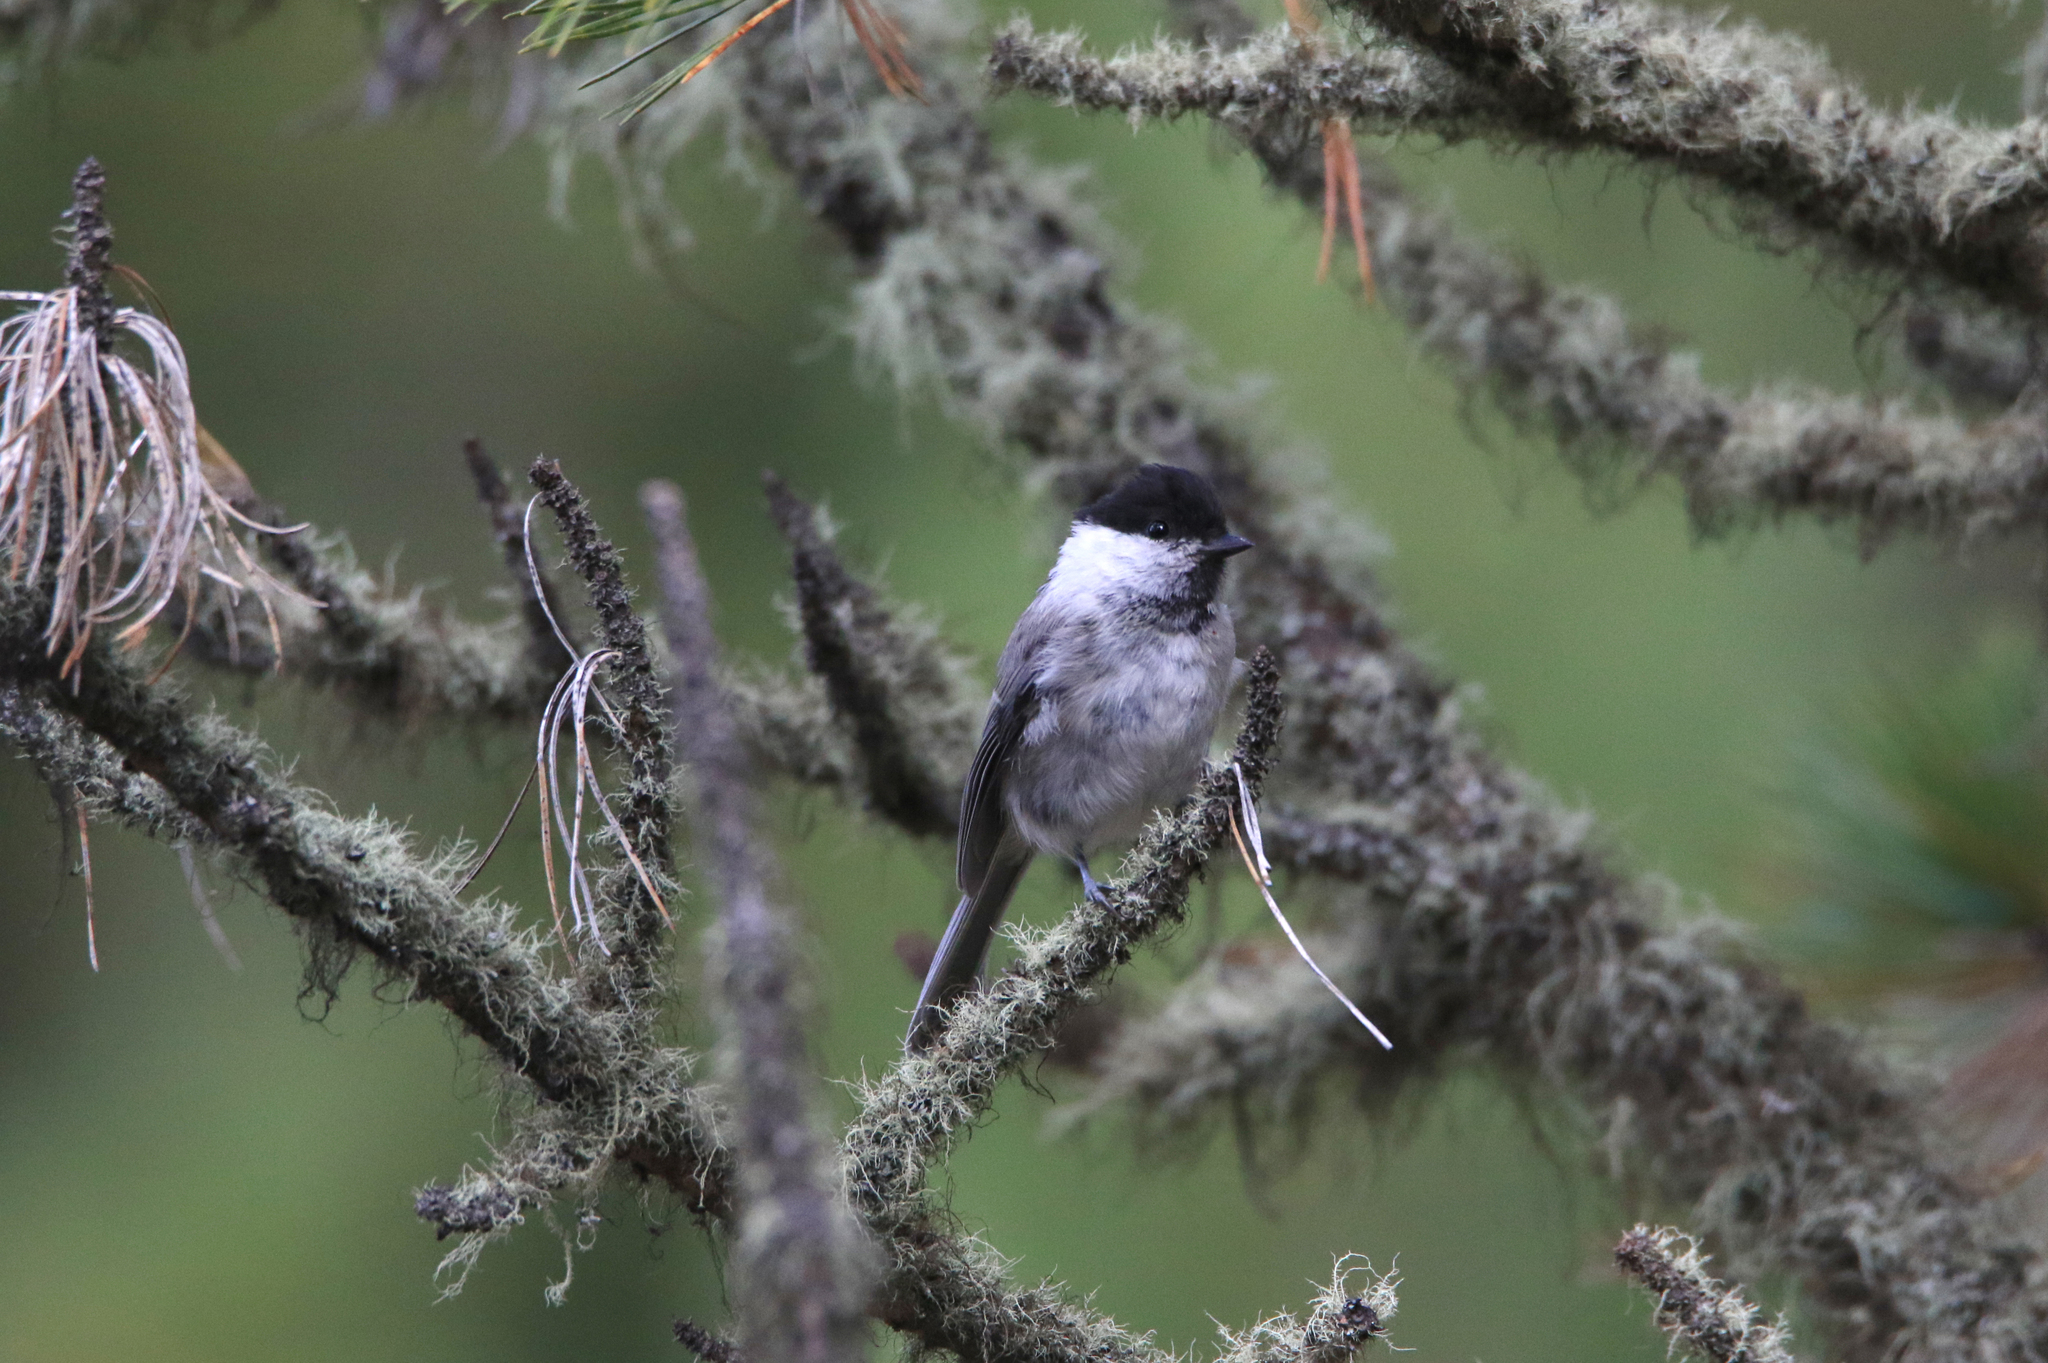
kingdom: Animalia
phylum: Chordata
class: Aves
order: Passeriformes
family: Paridae
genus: Poecile
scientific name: Poecile montanus
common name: Willow tit
